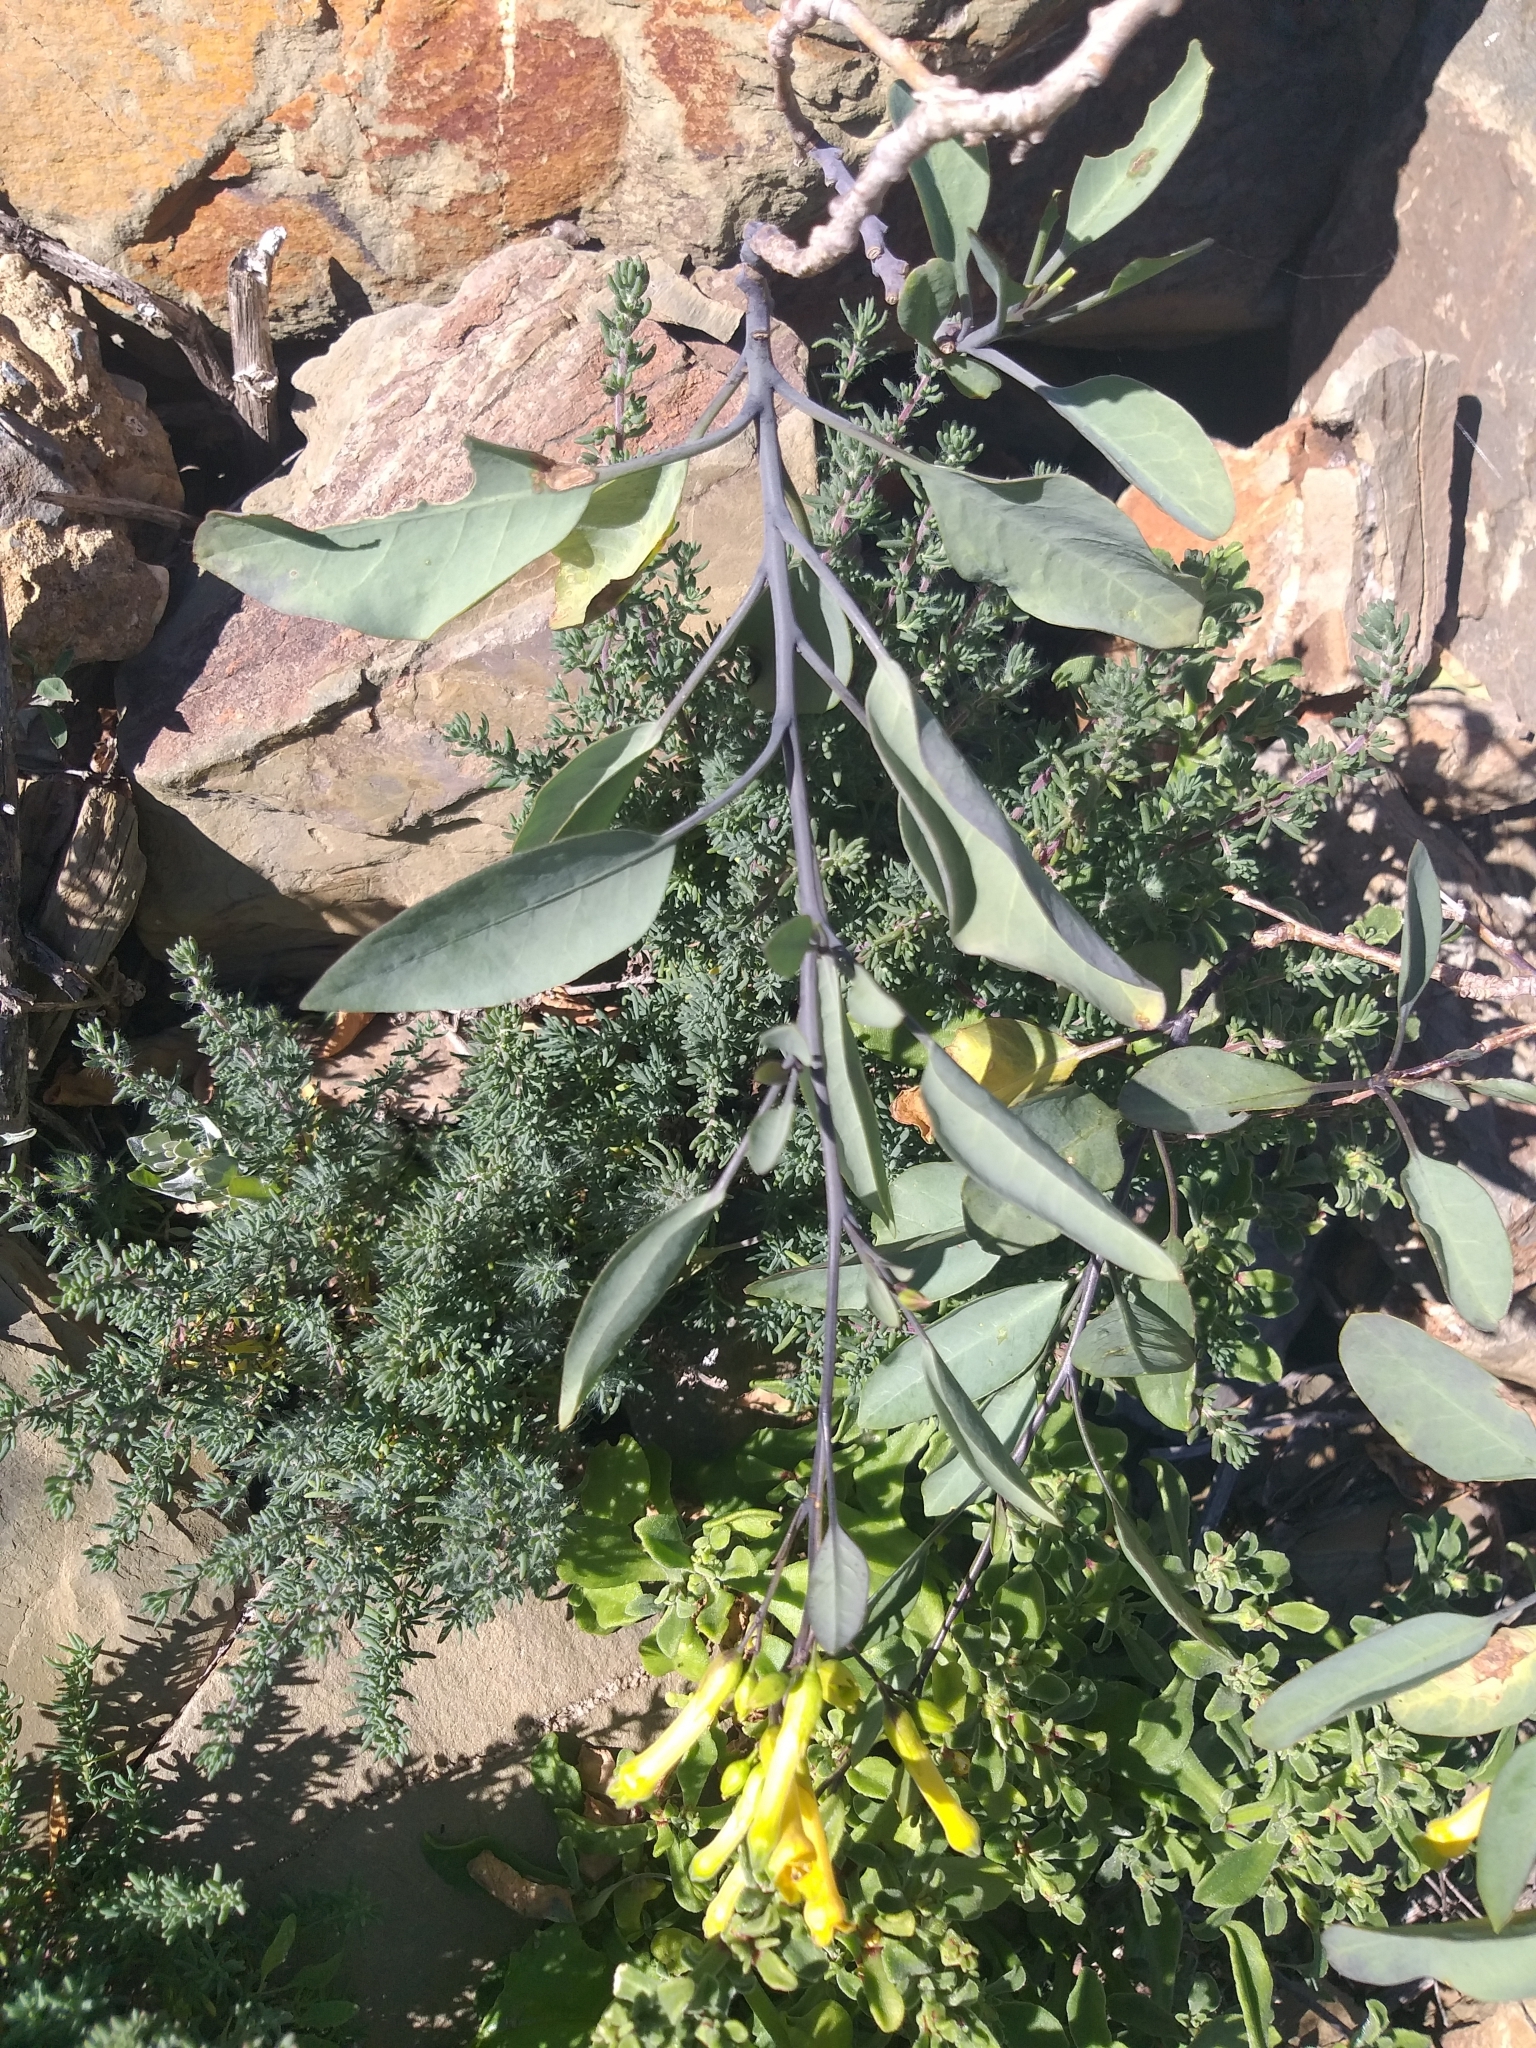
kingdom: Plantae
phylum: Tracheophyta
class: Magnoliopsida
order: Solanales
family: Solanaceae
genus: Nicotiana
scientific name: Nicotiana glauca
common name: Tree tobacco
